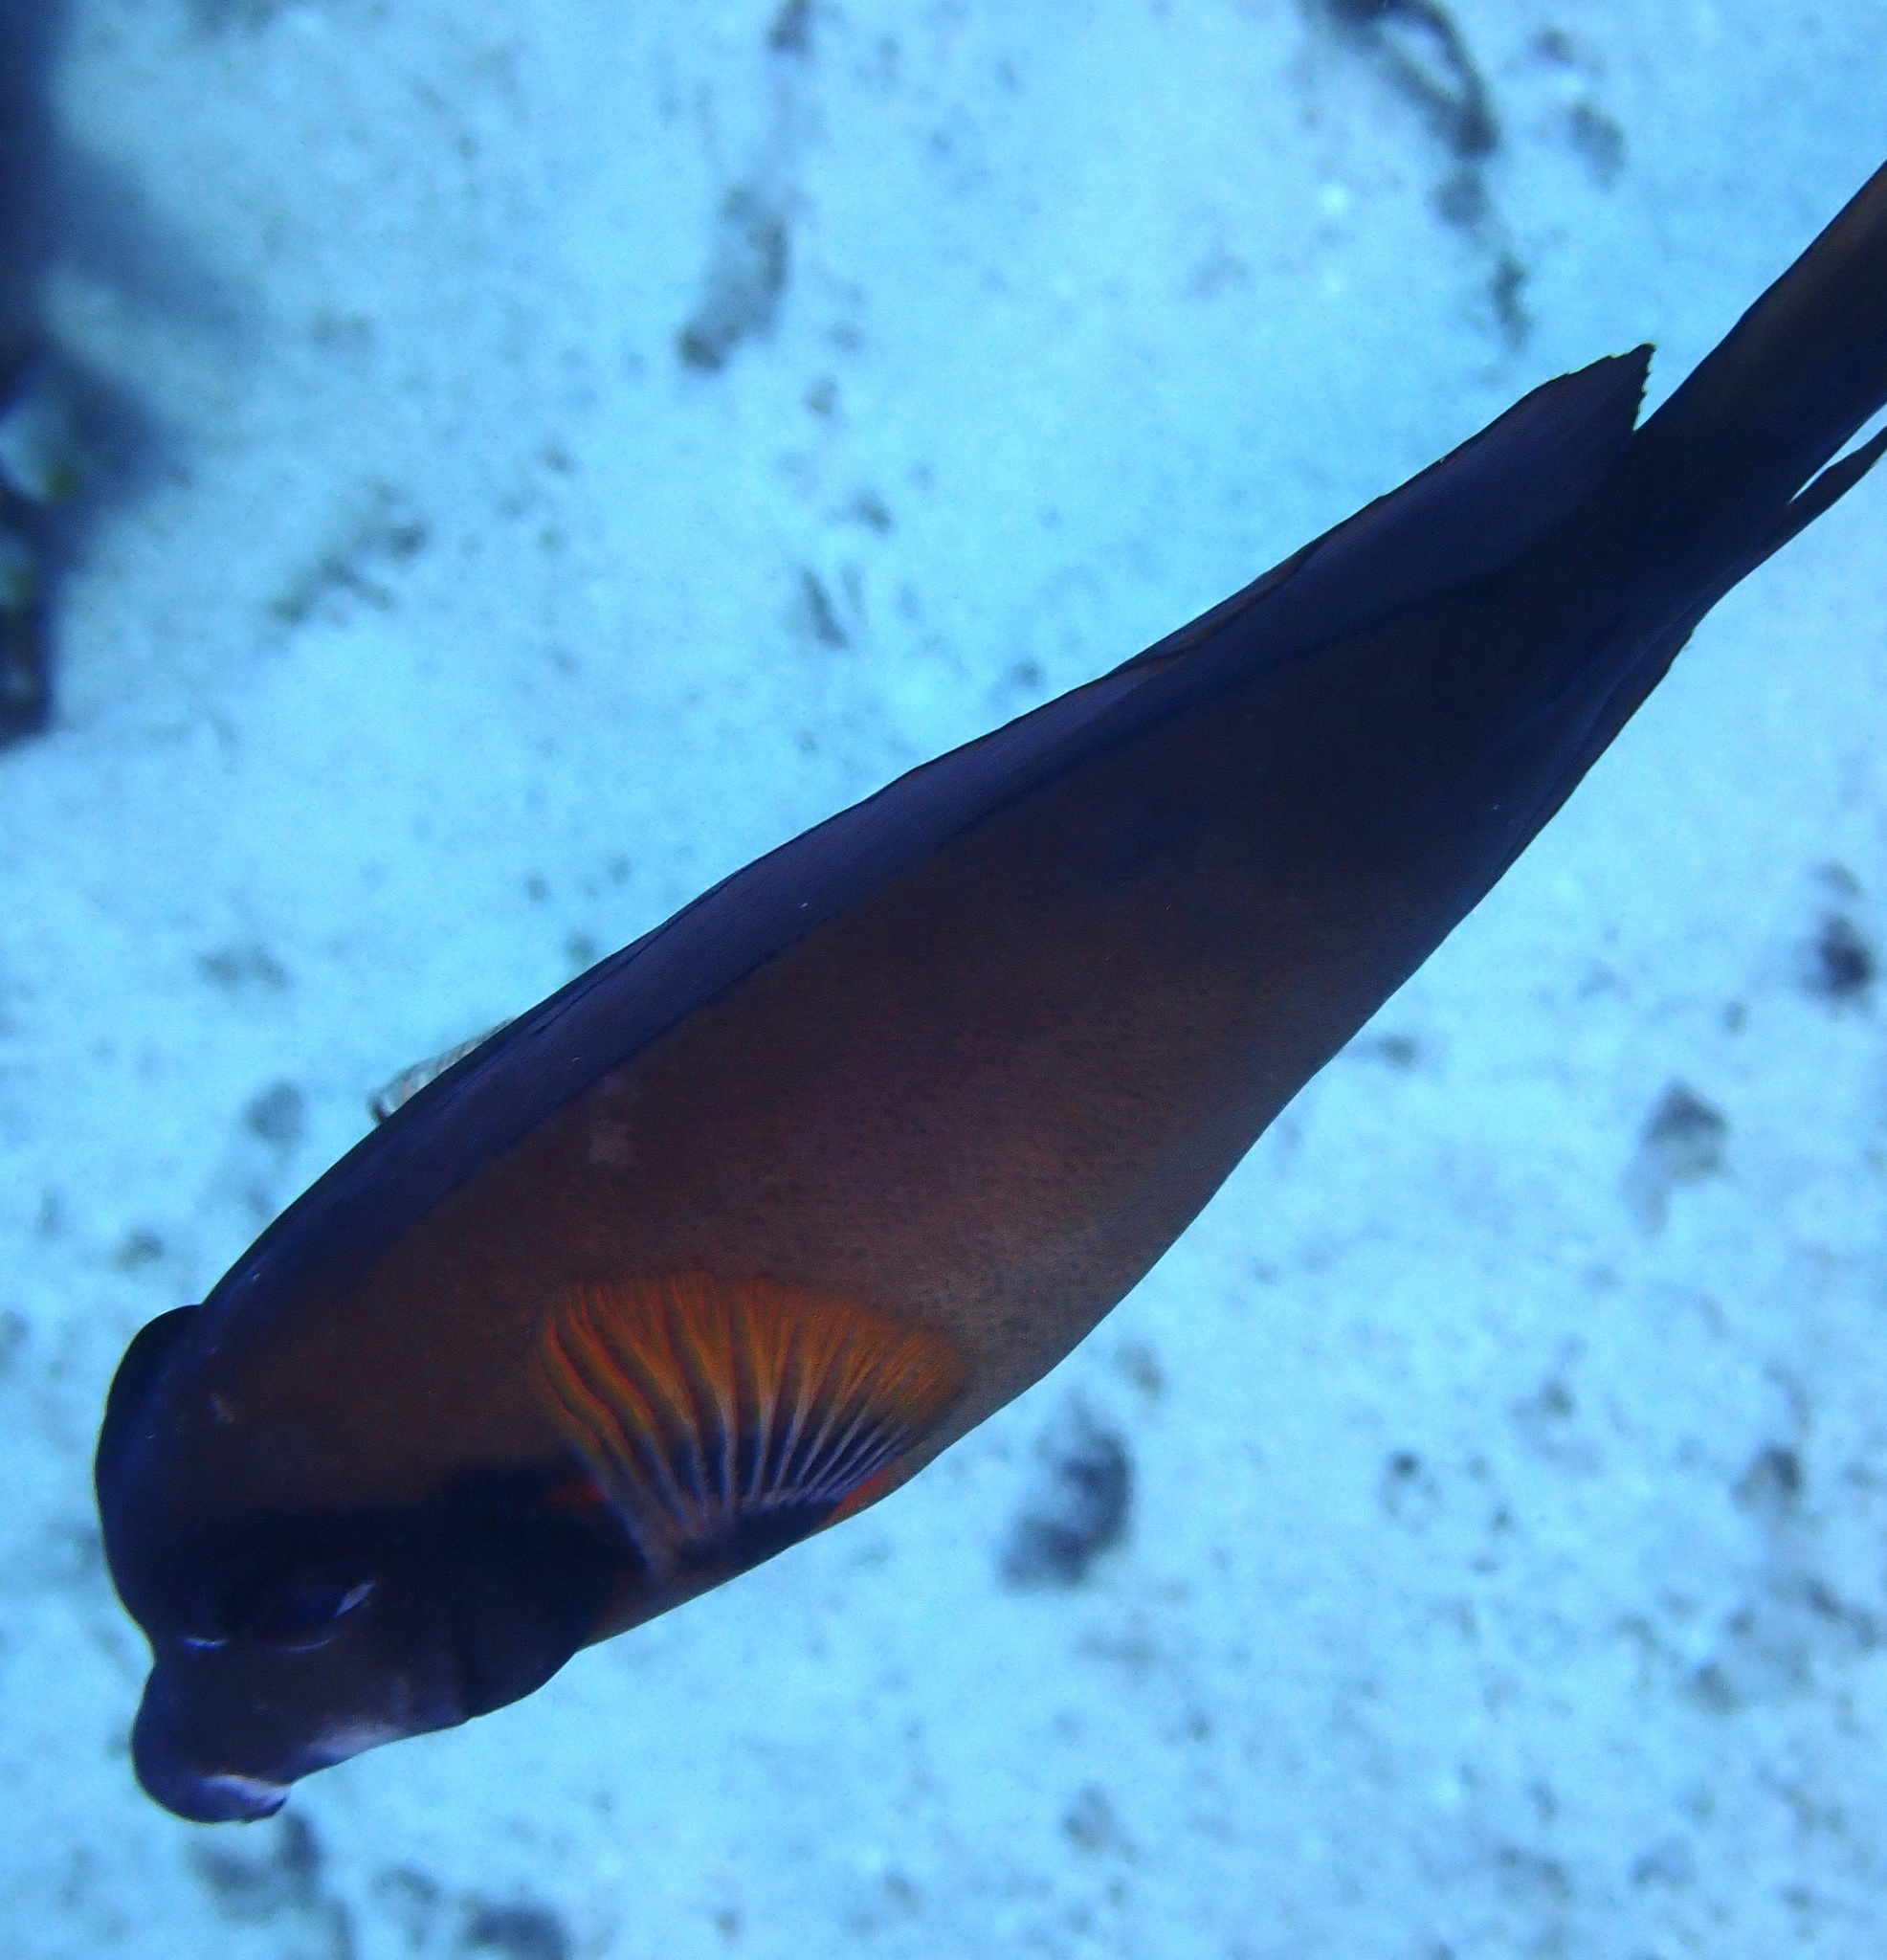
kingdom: Animalia
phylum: Chordata
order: Perciformes
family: Acanthuridae
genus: Acanthurus
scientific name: Acanthurus pyroferus
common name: Chocolate surgeonfish
